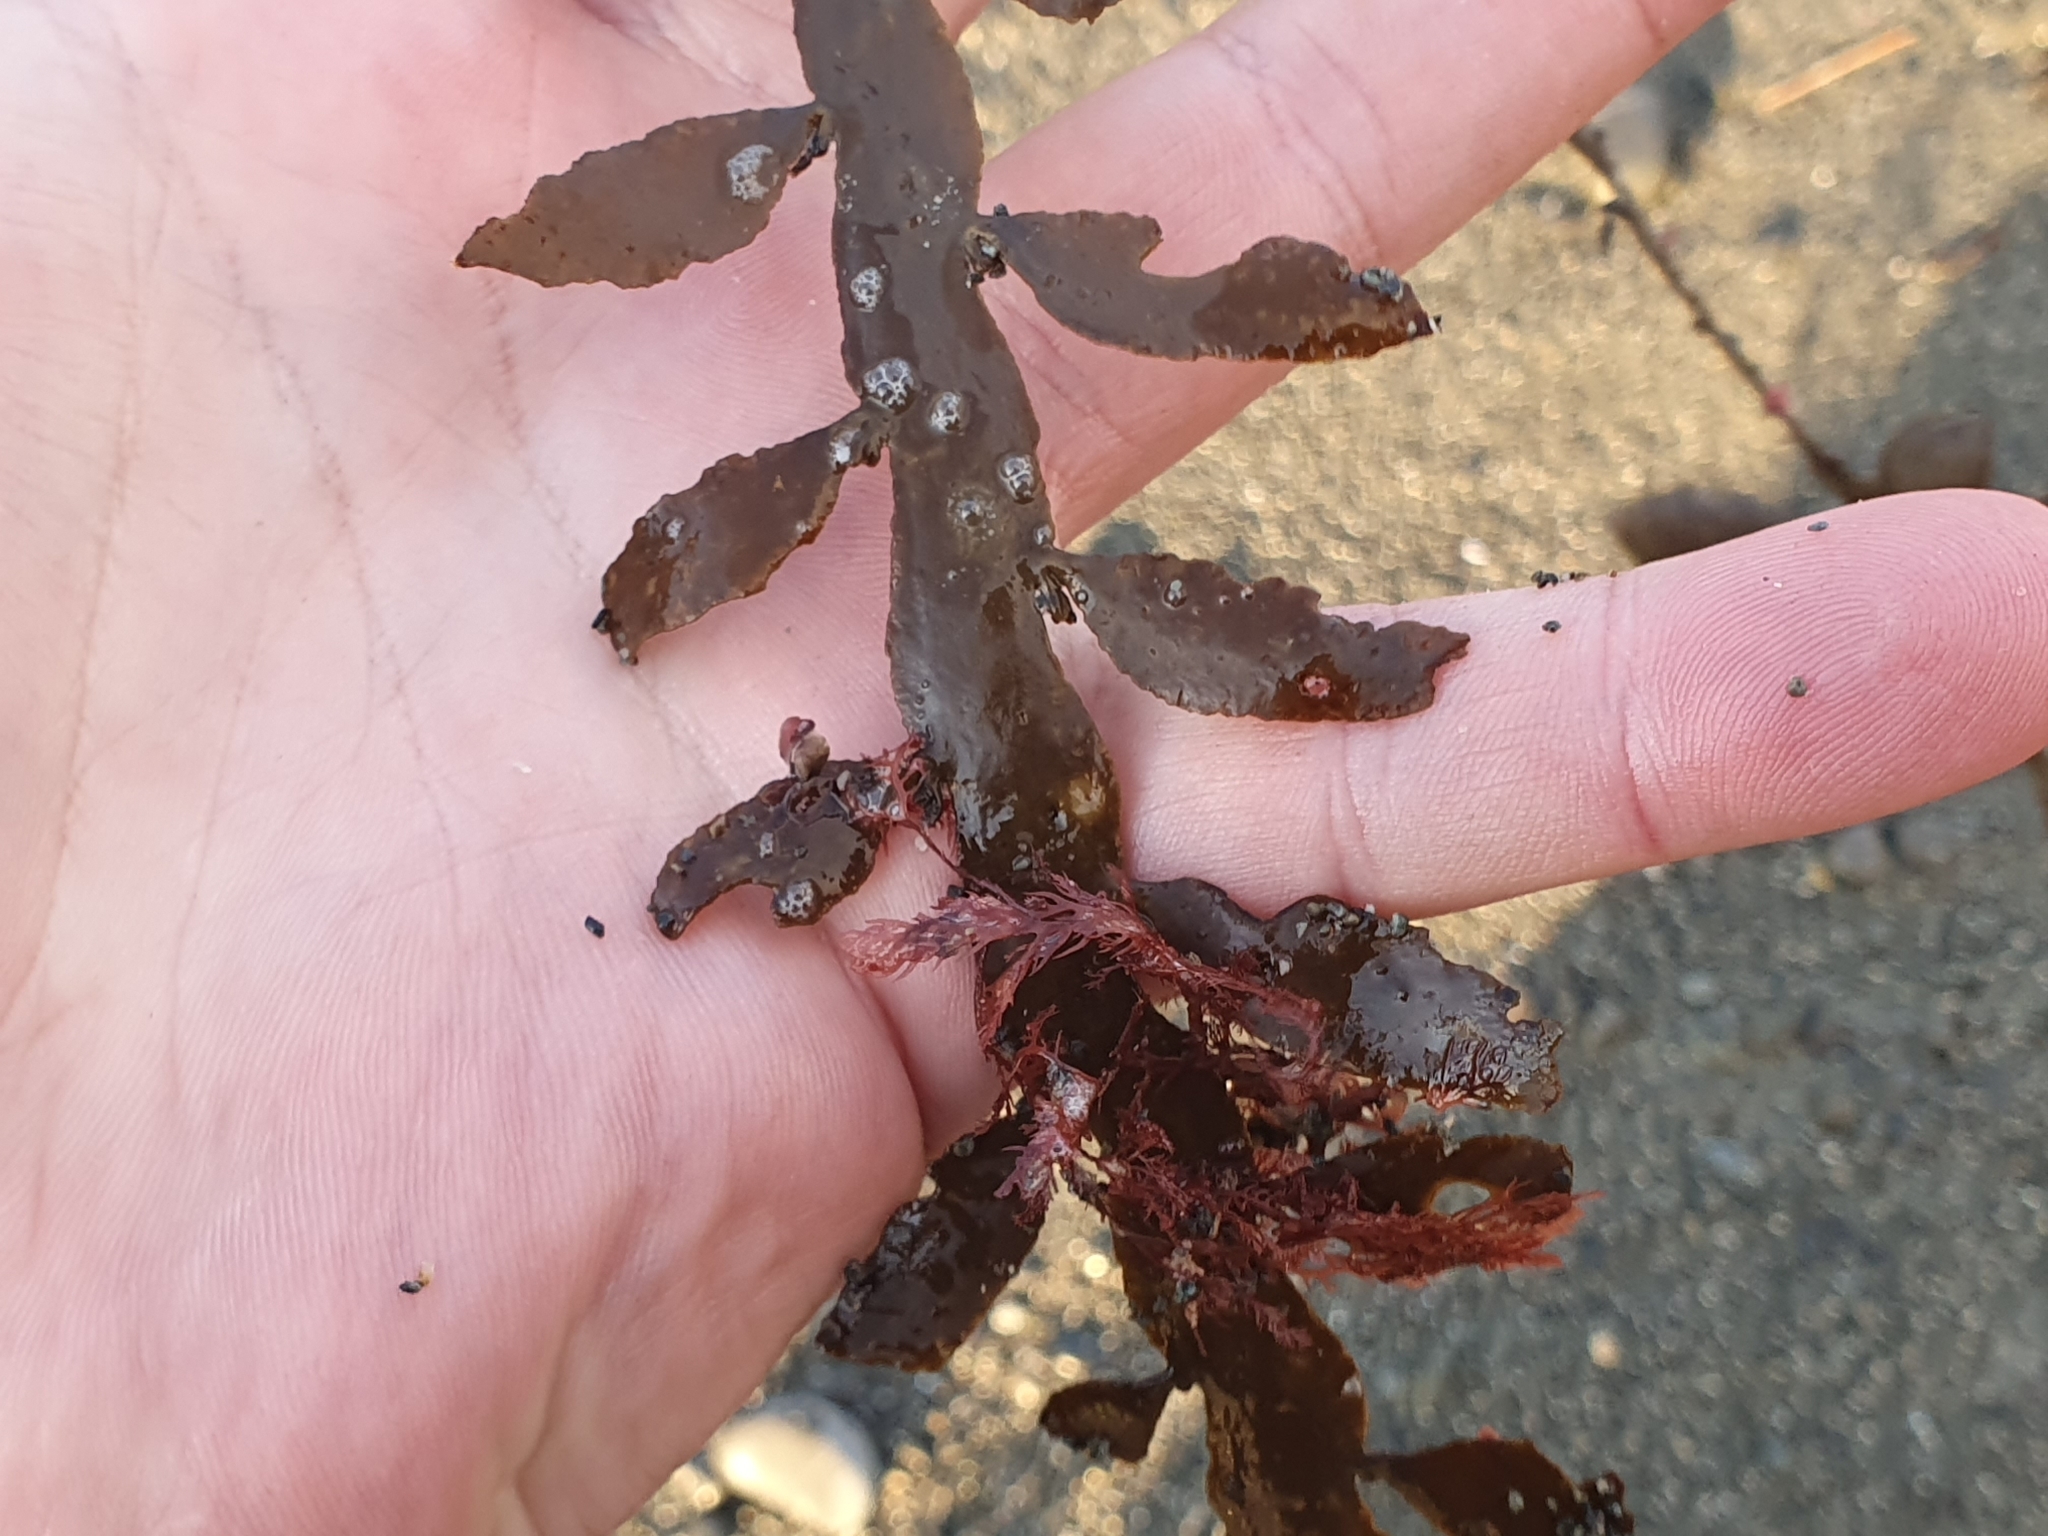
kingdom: Chromista
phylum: Ochrophyta
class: Phaeophyceae
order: Fucales
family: Sargassaceae
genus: Carpophyllum
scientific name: Carpophyllum maschalocarpum
